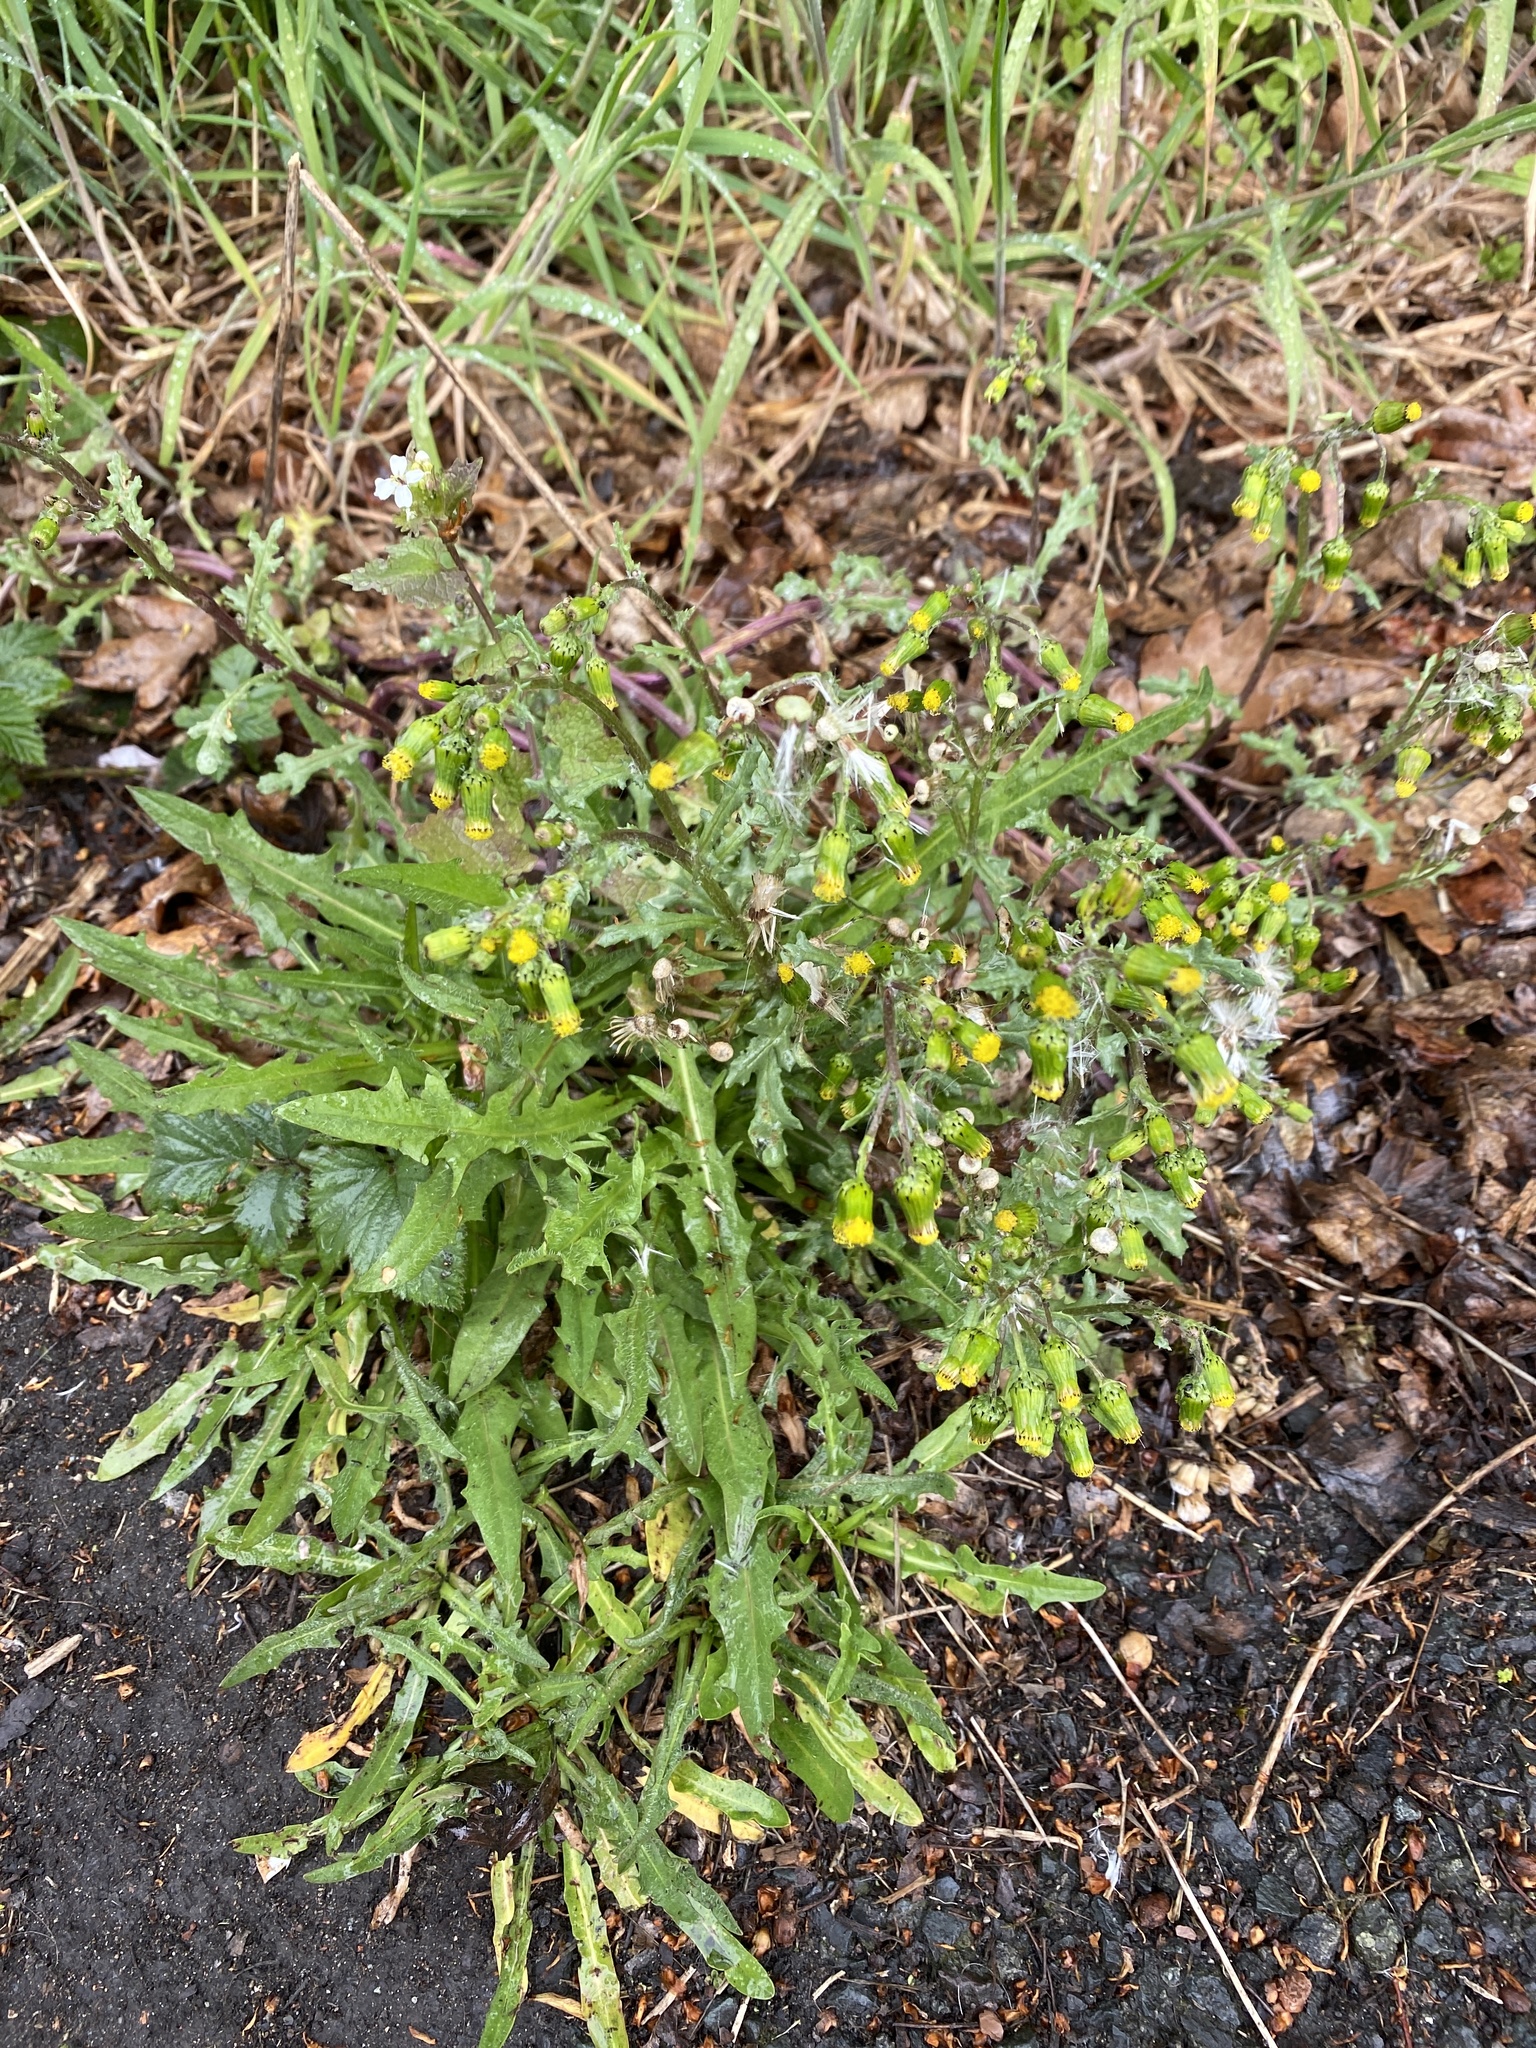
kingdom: Plantae
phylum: Tracheophyta
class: Magnoliopsida
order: Asterales
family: Asteraceae
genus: Senecio
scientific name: Senecio vulgaris
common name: Old-man-in-the-spring
